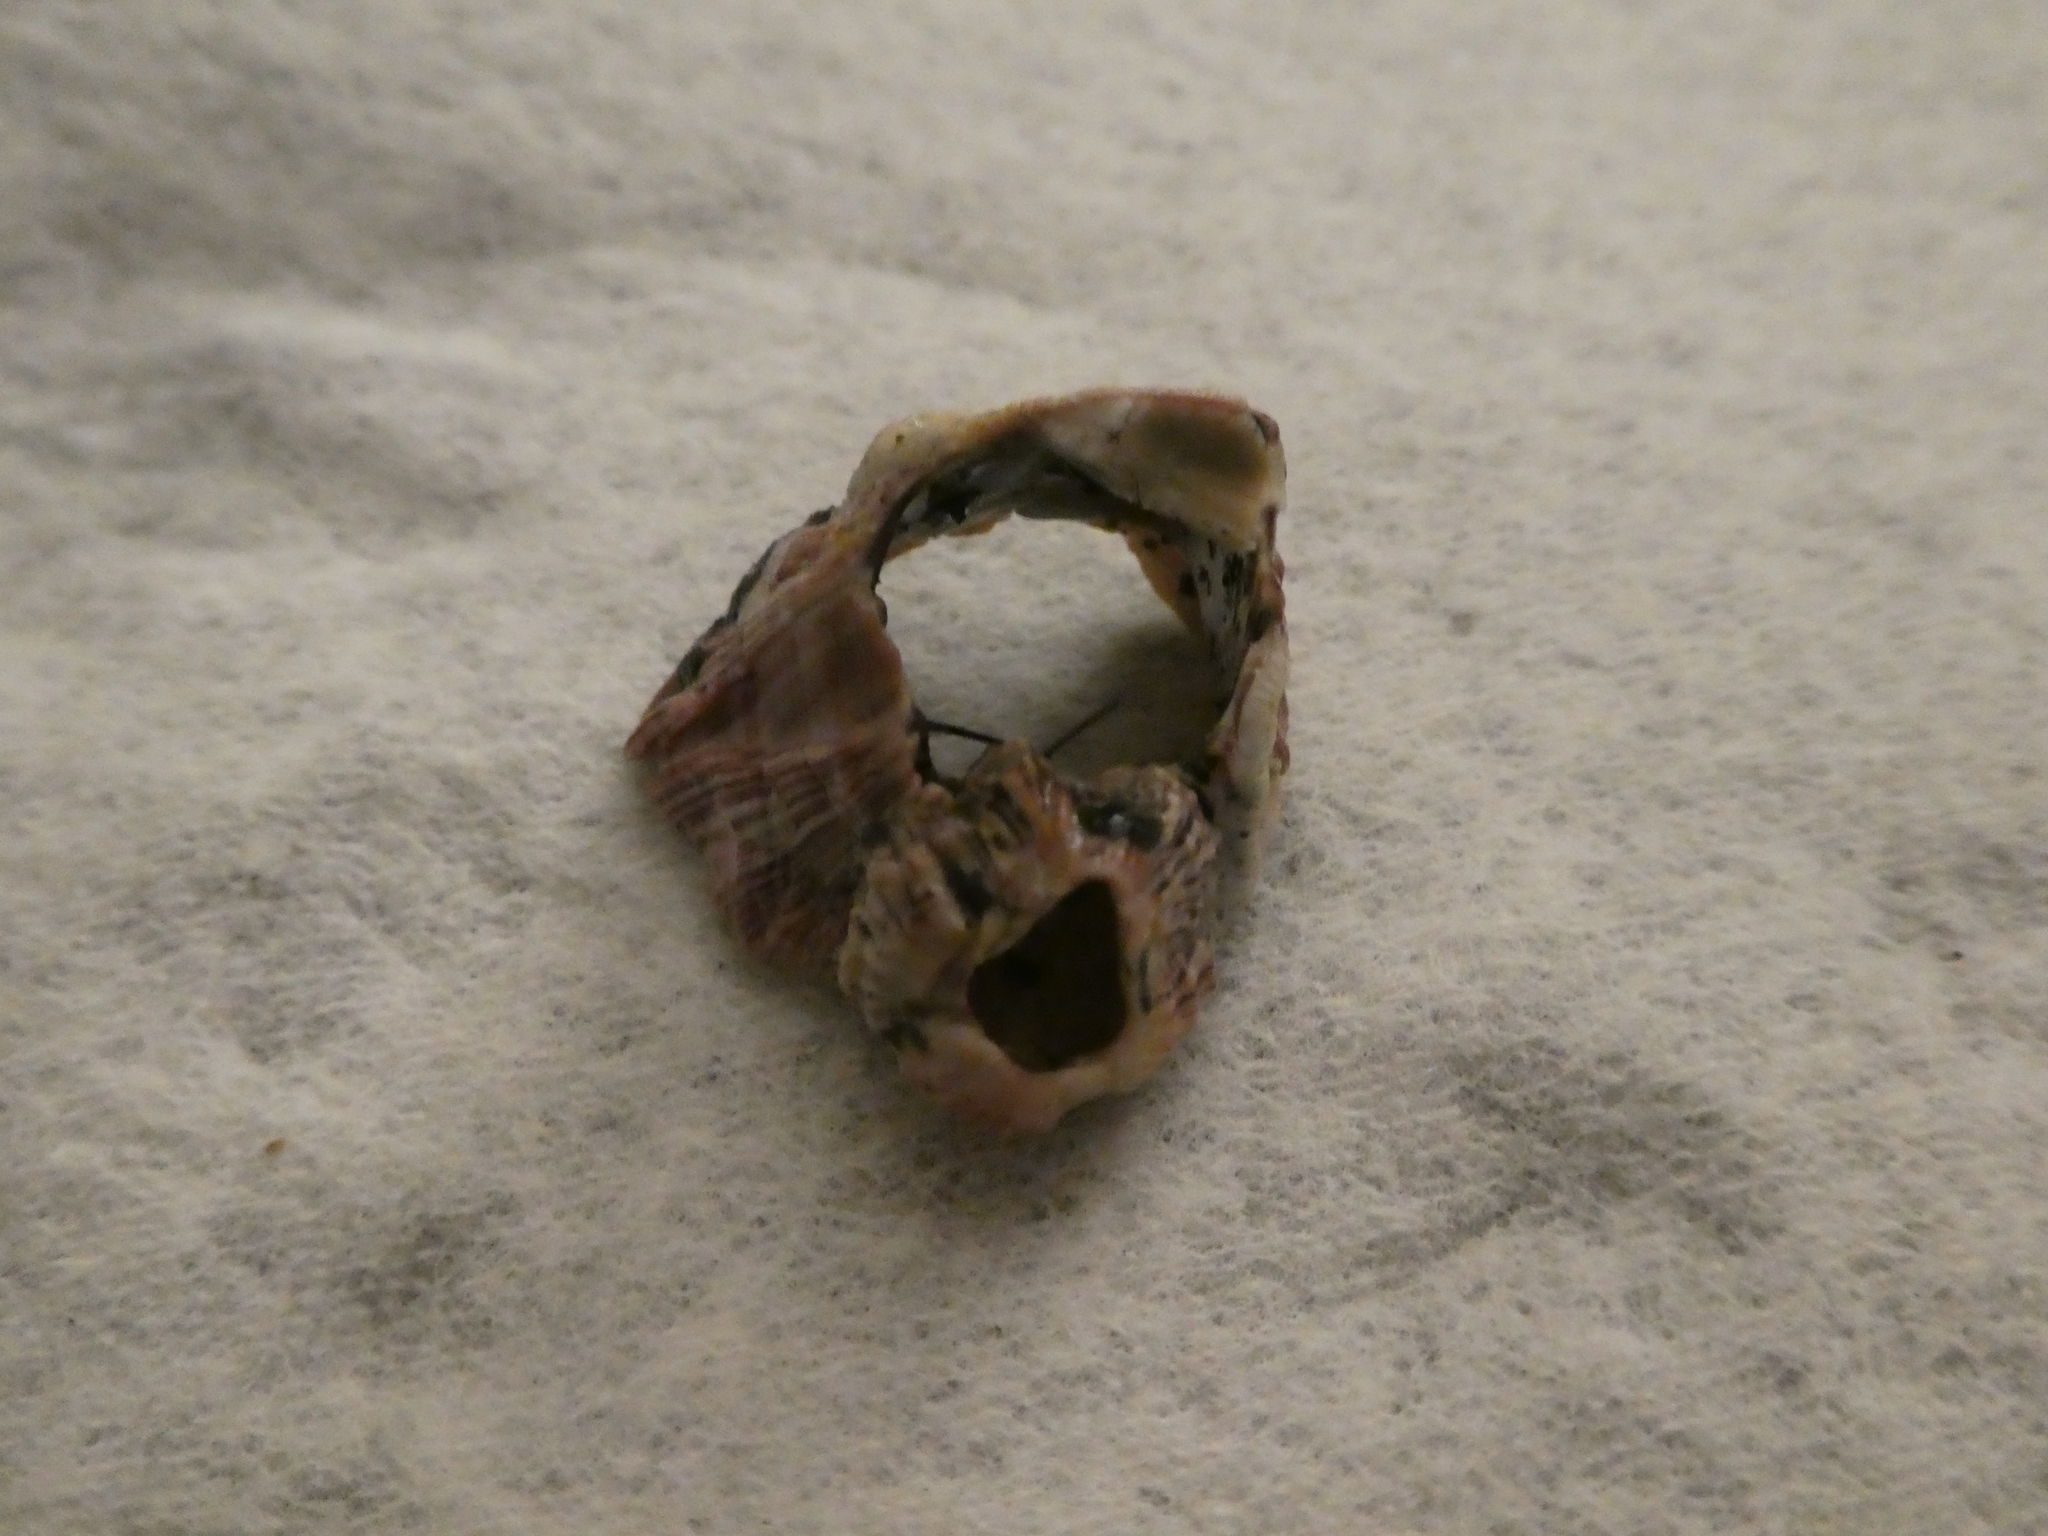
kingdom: Animalia
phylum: Arthropoda
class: Maxillopoda
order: Sessilia
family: Balanidae
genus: Balanus
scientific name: Balanus trigonus
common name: Triangle barnacle
